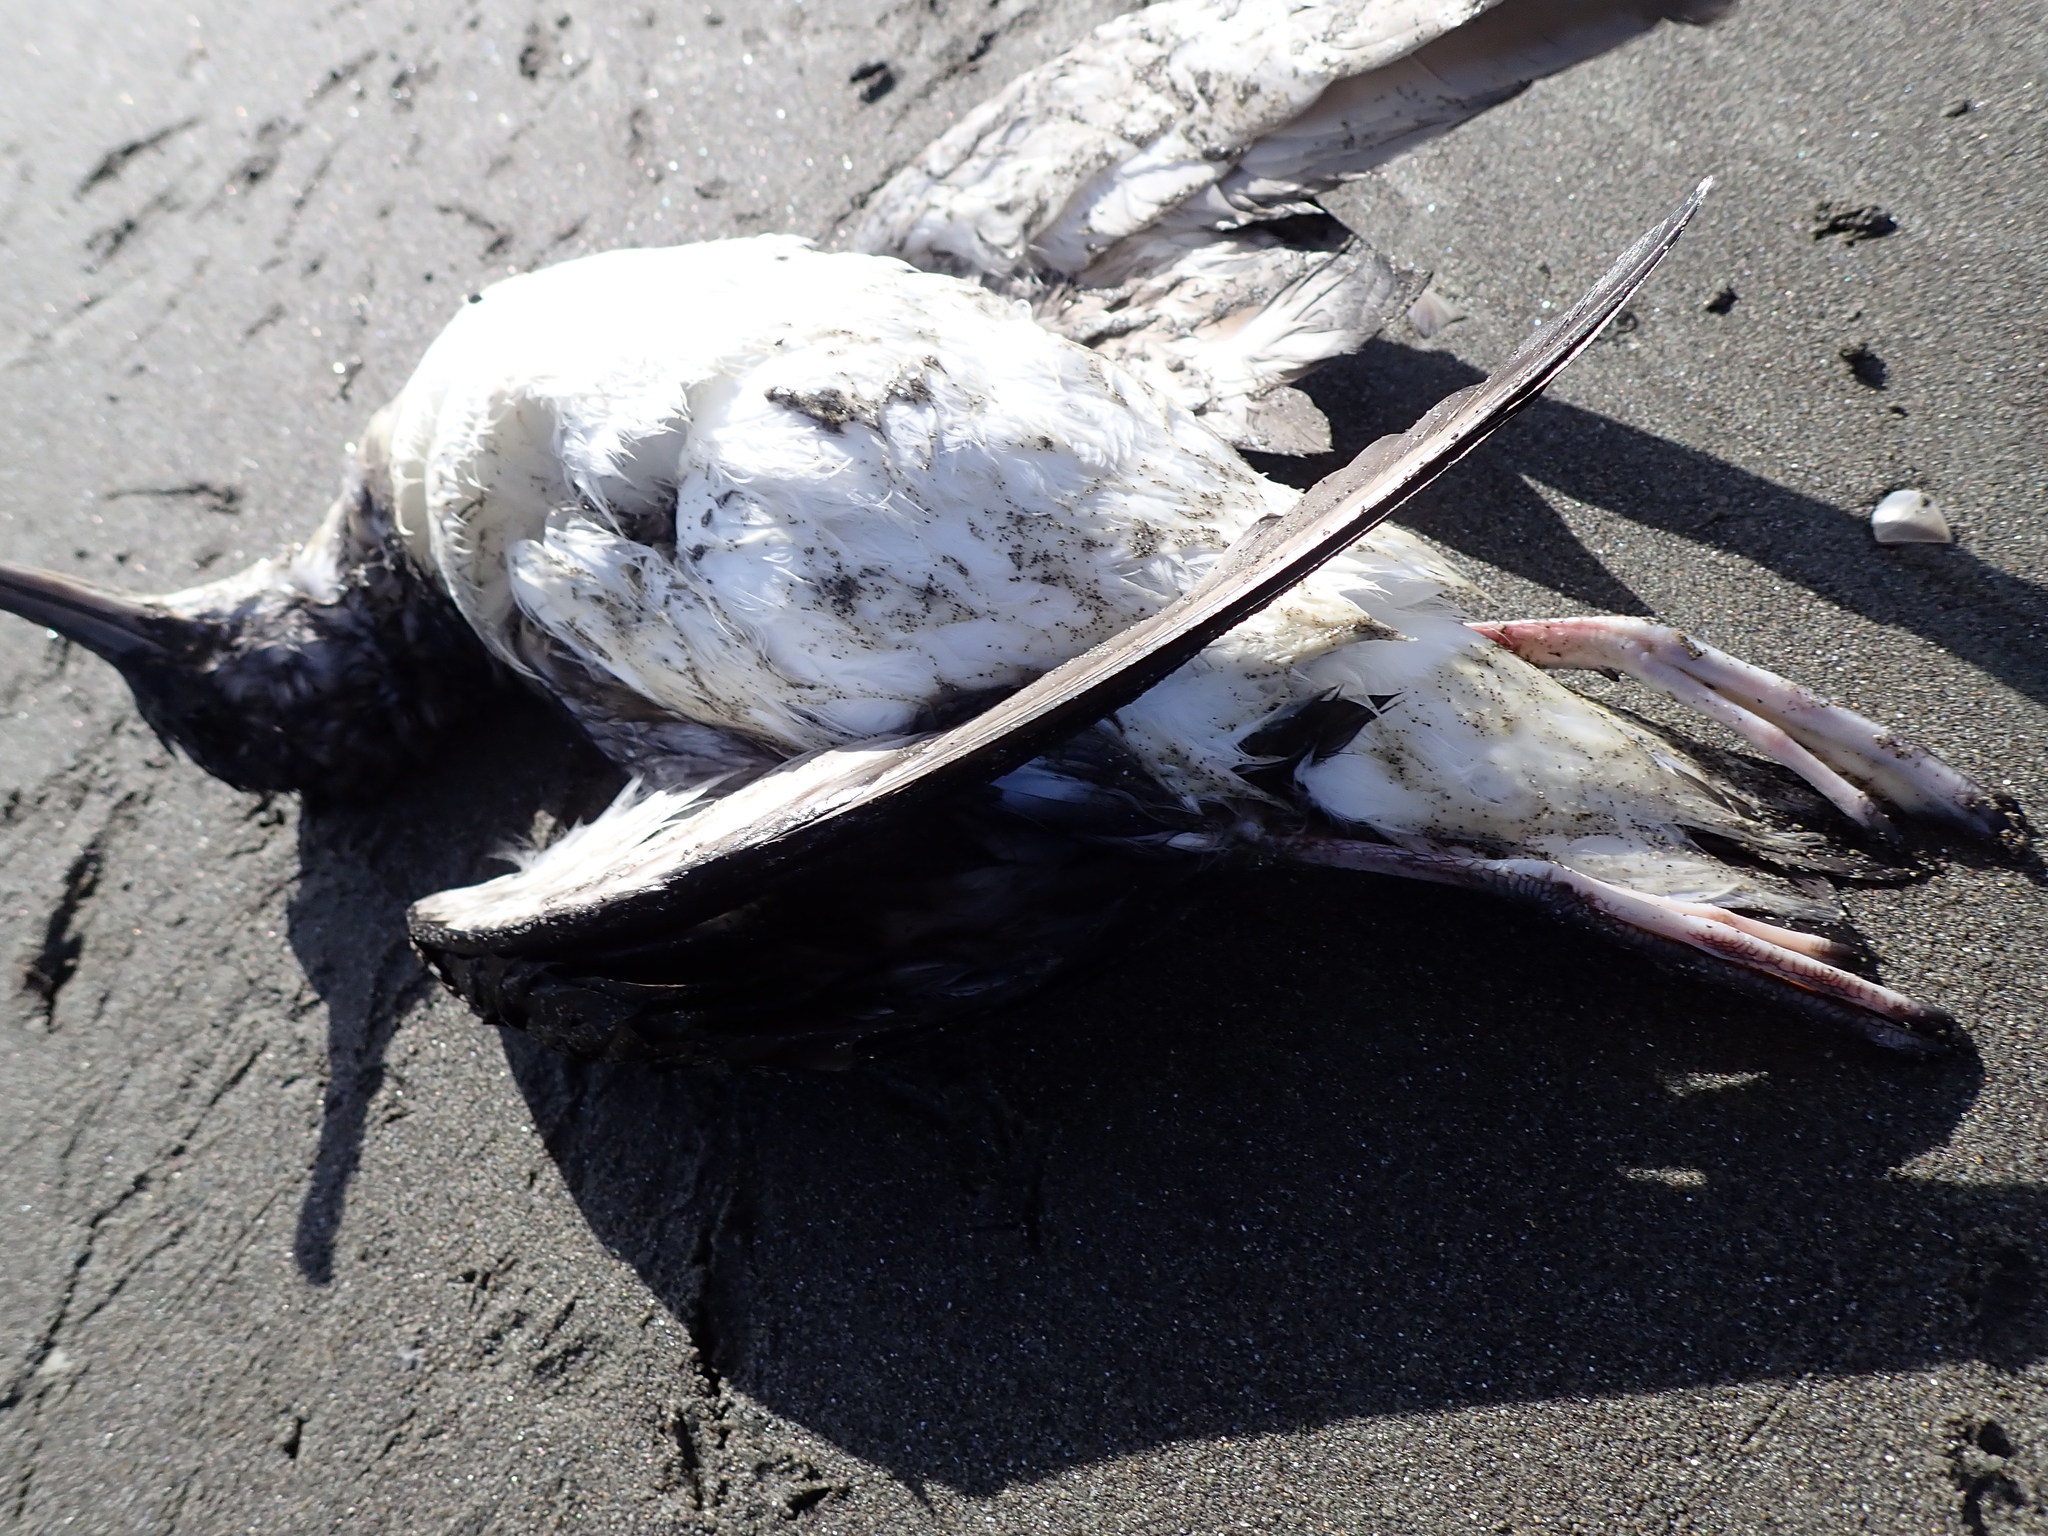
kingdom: Animalia
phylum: Chordata
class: Aves
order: Procellariiformes
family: Procellariidae
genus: Puffinus
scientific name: Puffinus gavia
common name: Fluttering shearwater
